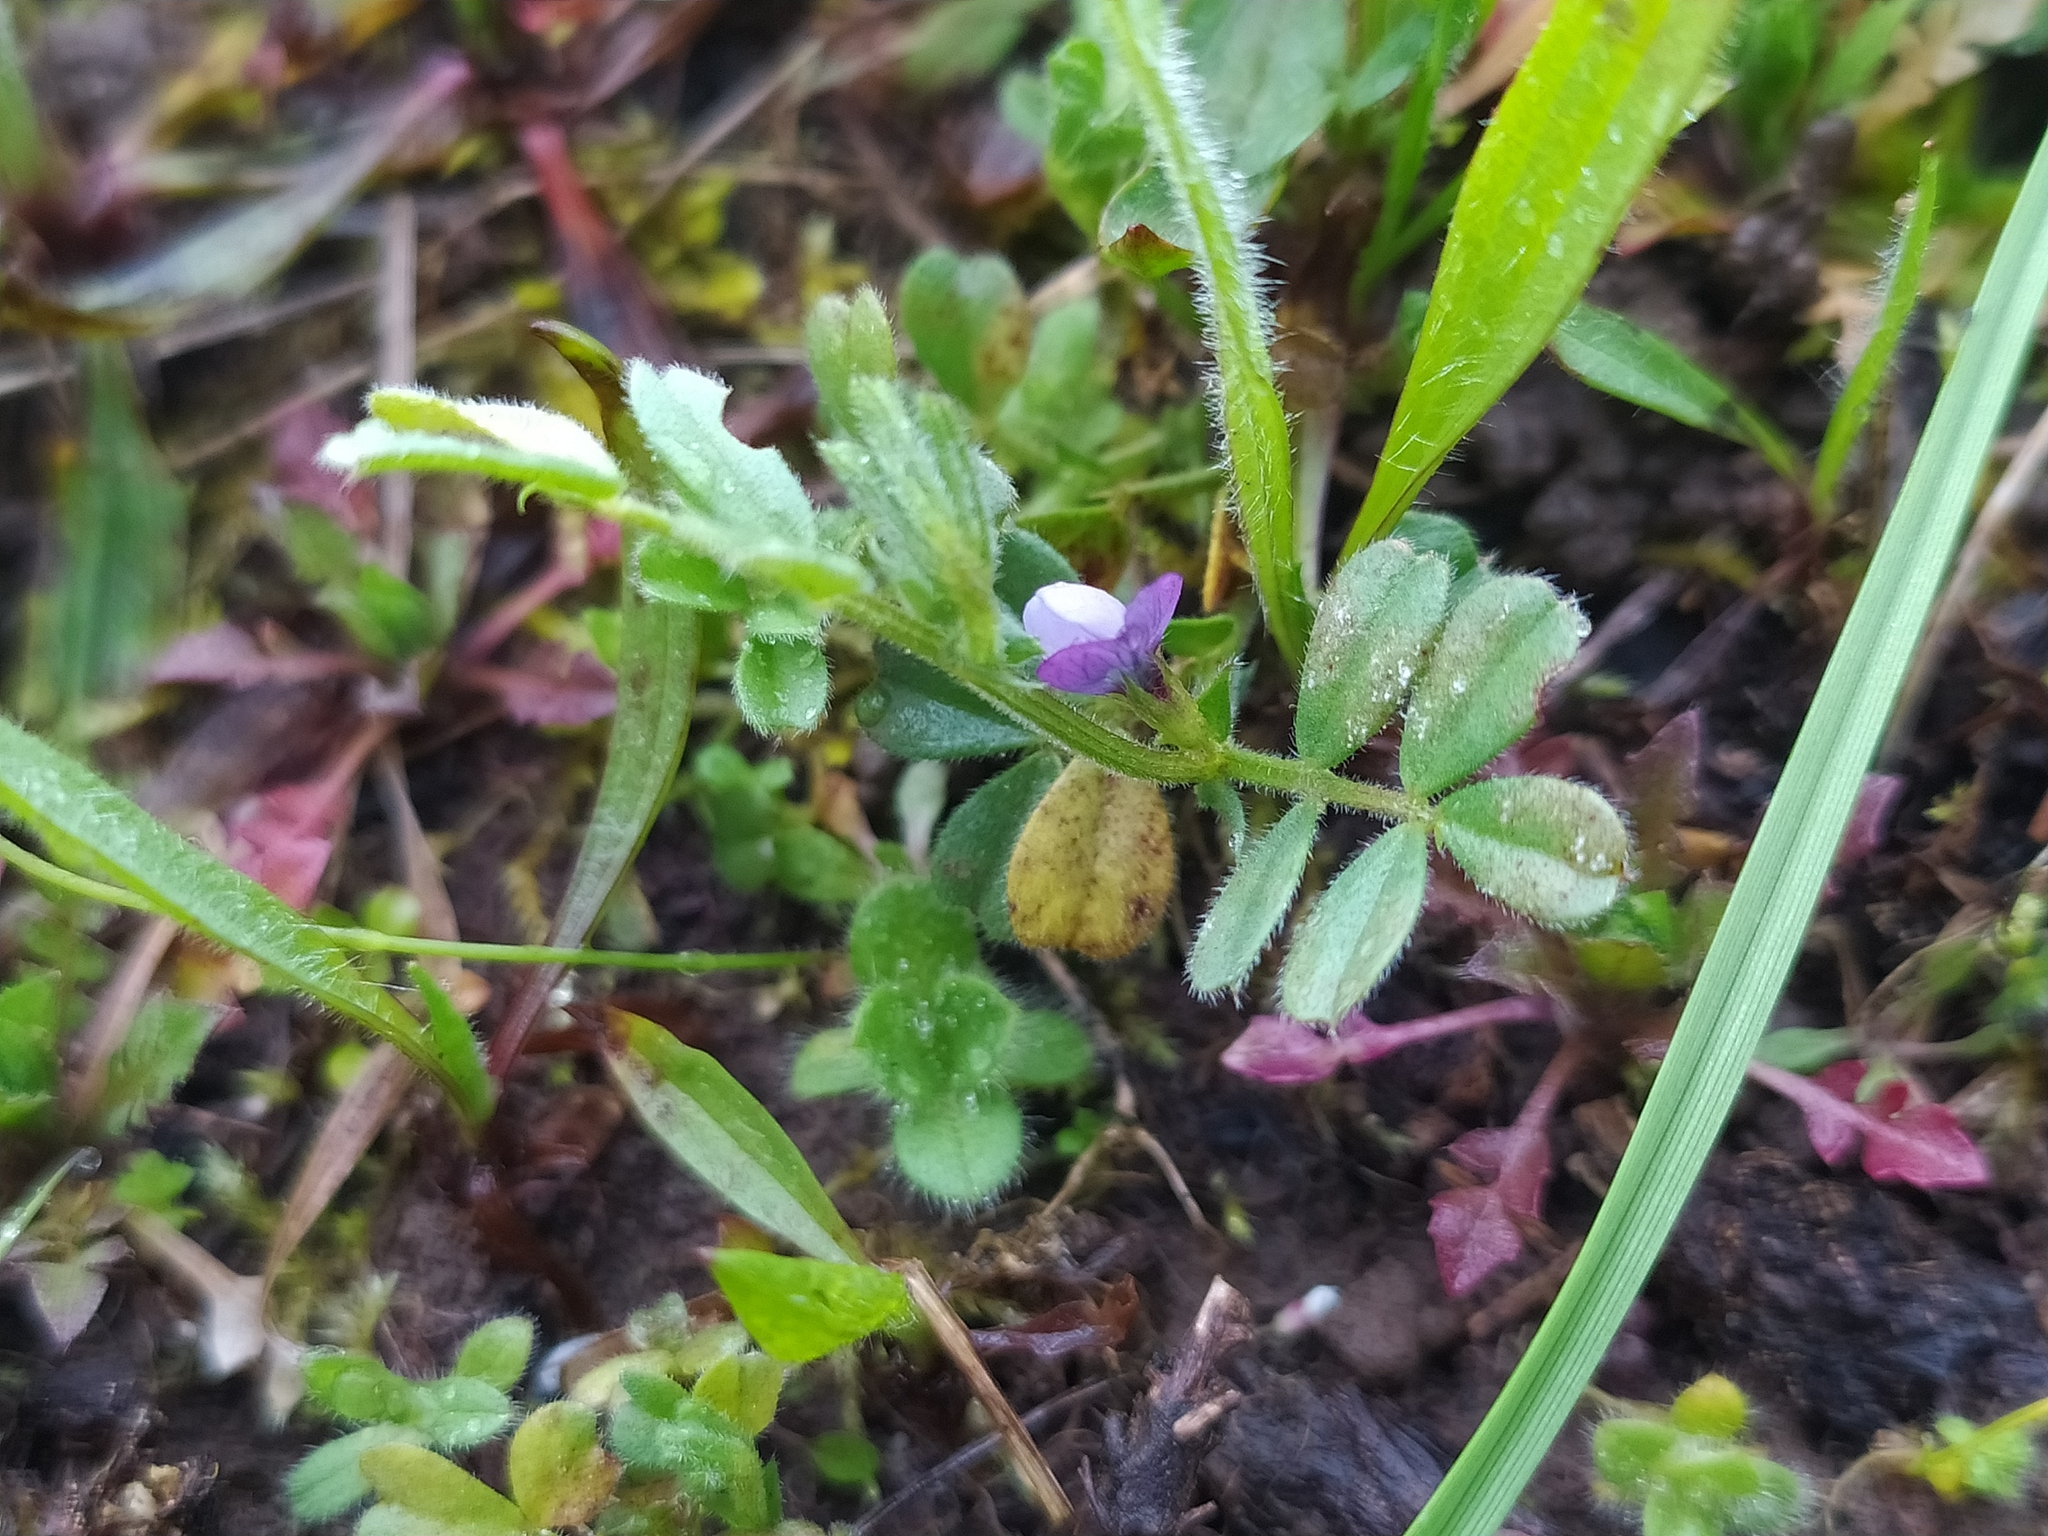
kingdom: Plantae
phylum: Tracheophyta
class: Magnoliopsida
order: Fabales
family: Fabaceae
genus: Vicia
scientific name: Vicia lathyroides
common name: Spring vetch
